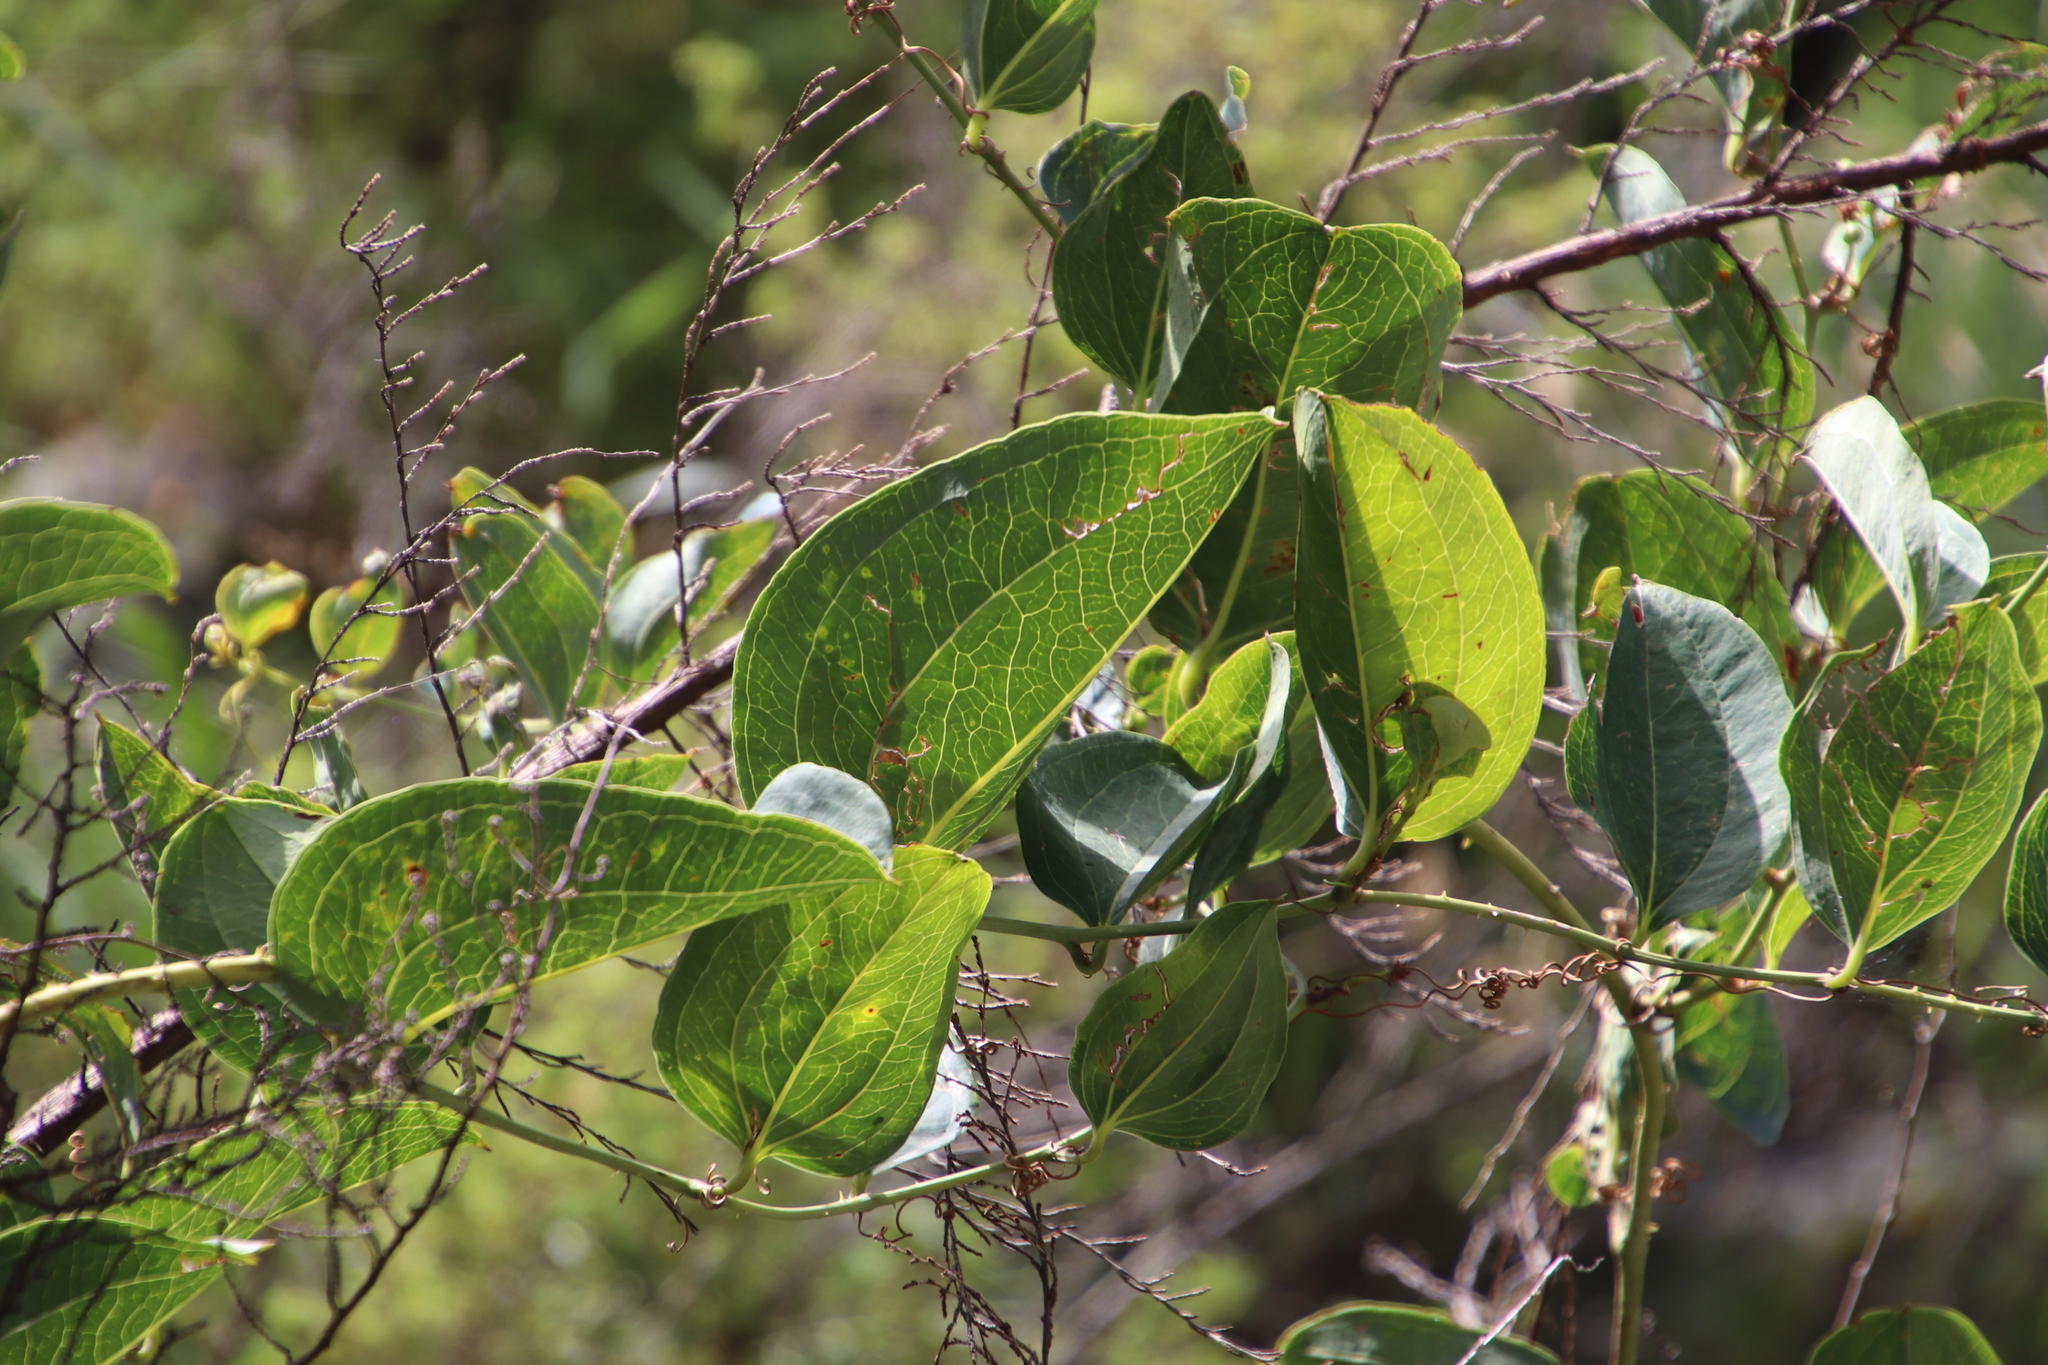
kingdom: Plantae
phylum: Tracheophyta
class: Liliopsida
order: Liliales
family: Smilacaceae
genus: Smilax
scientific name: Smilax anceps
